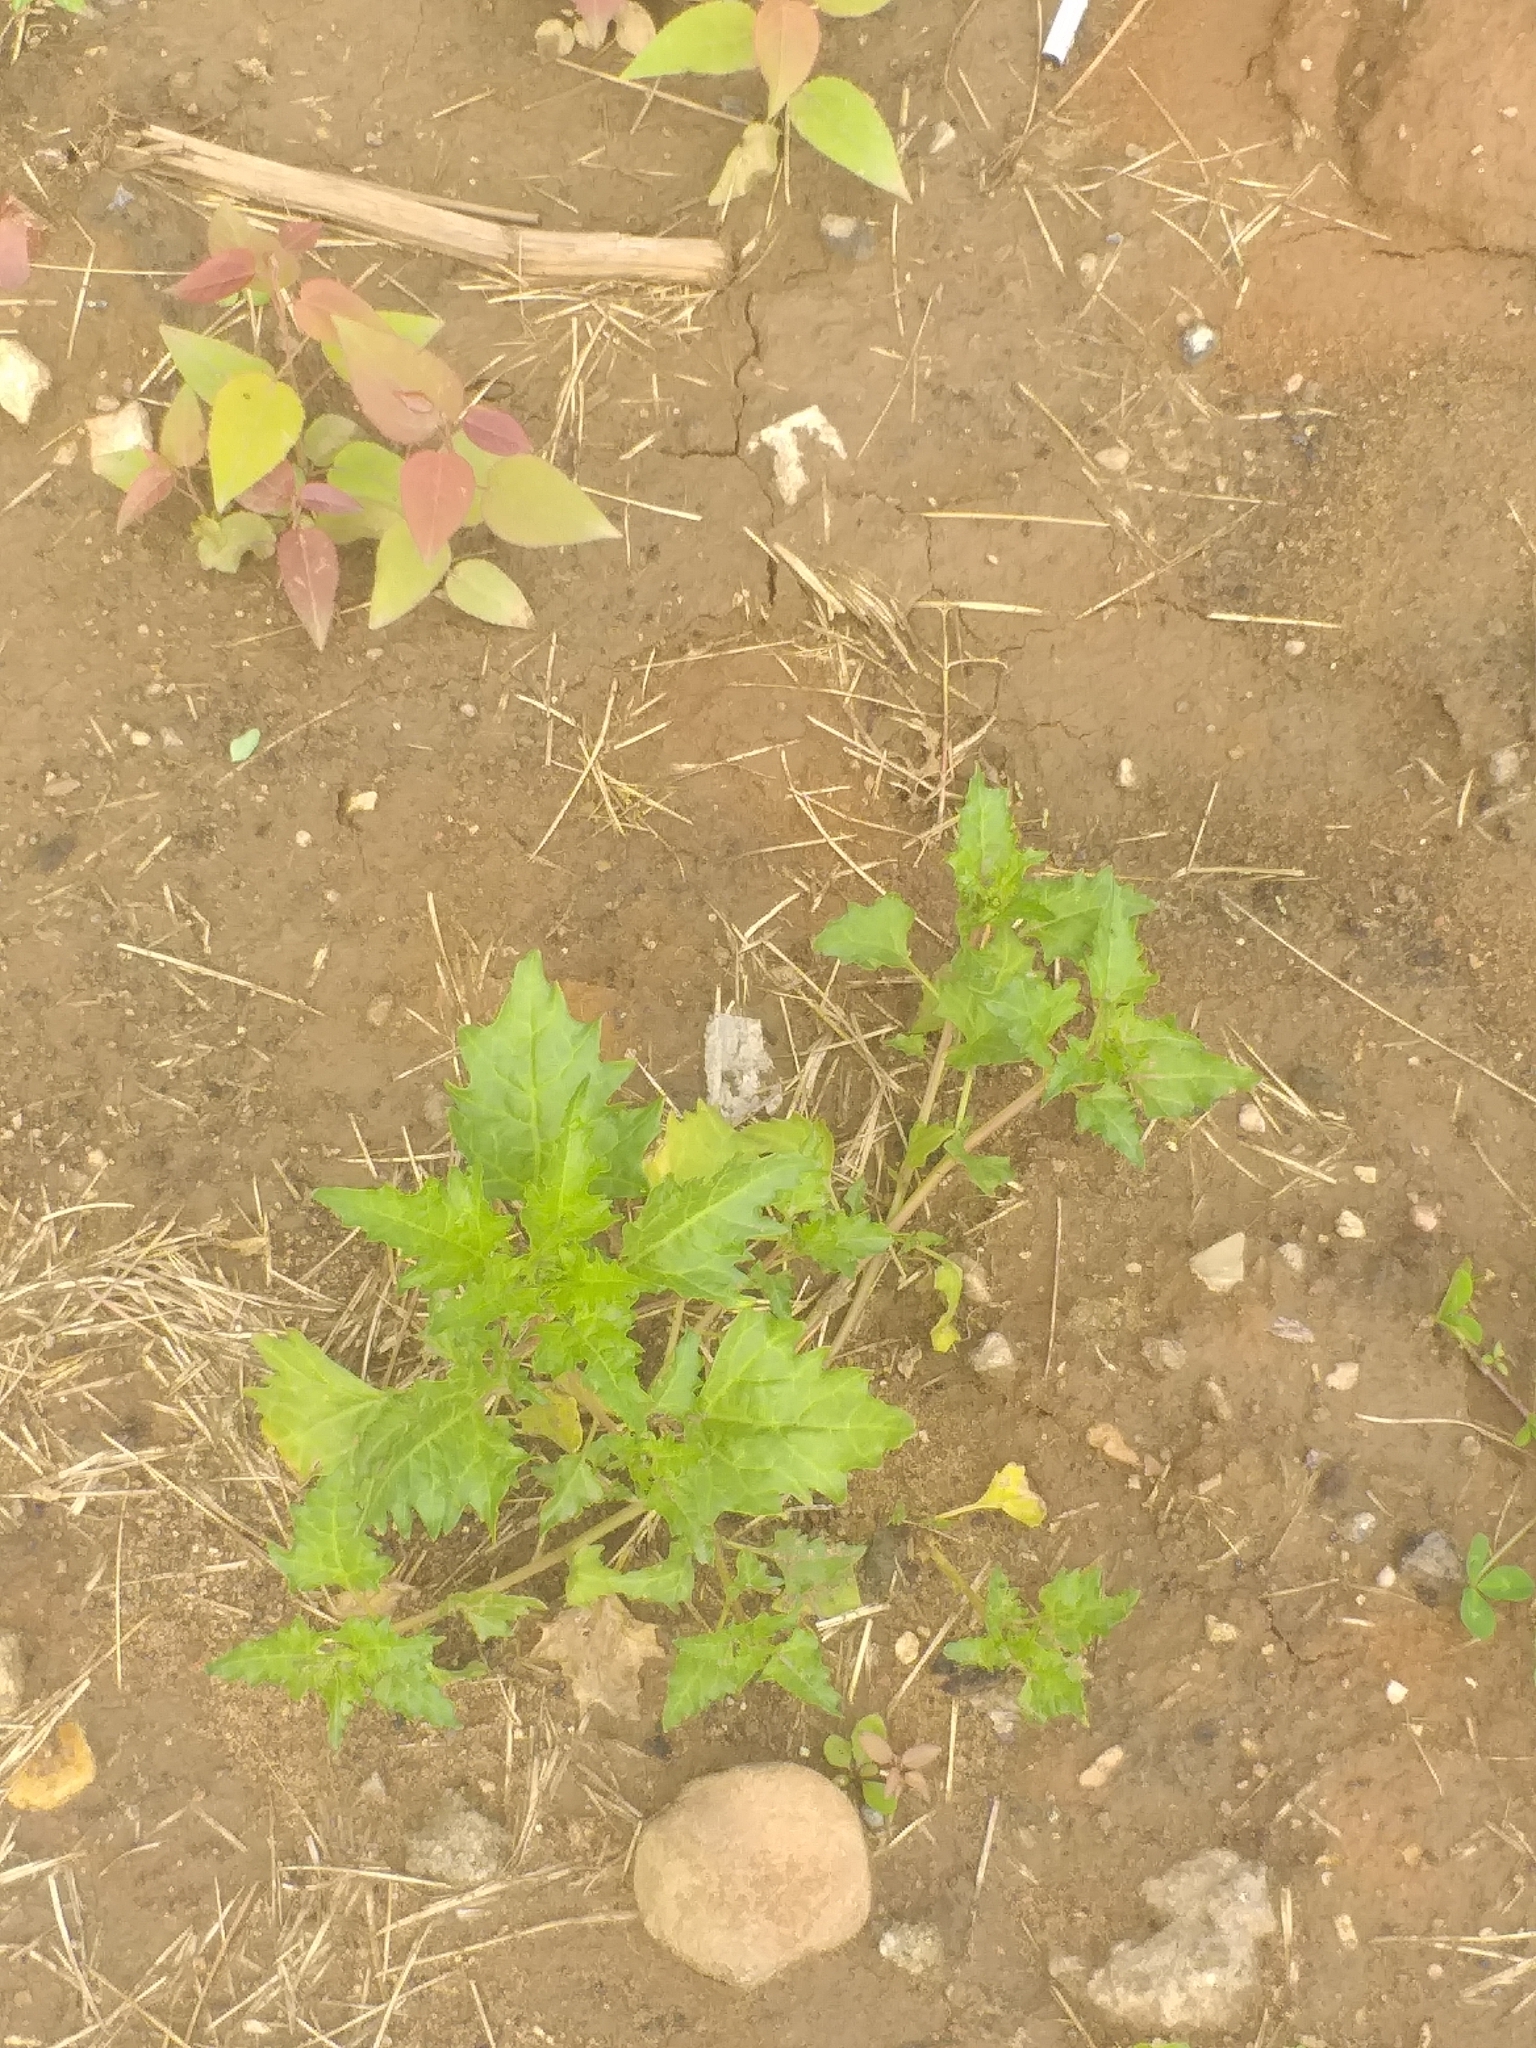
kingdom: Plantae
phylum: Tracheophyta
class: Magnoliopsida
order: Caryophyllales
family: Amaranthaceae
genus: Oxybasis
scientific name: Oxybasis rubra
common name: Red goosefoot
